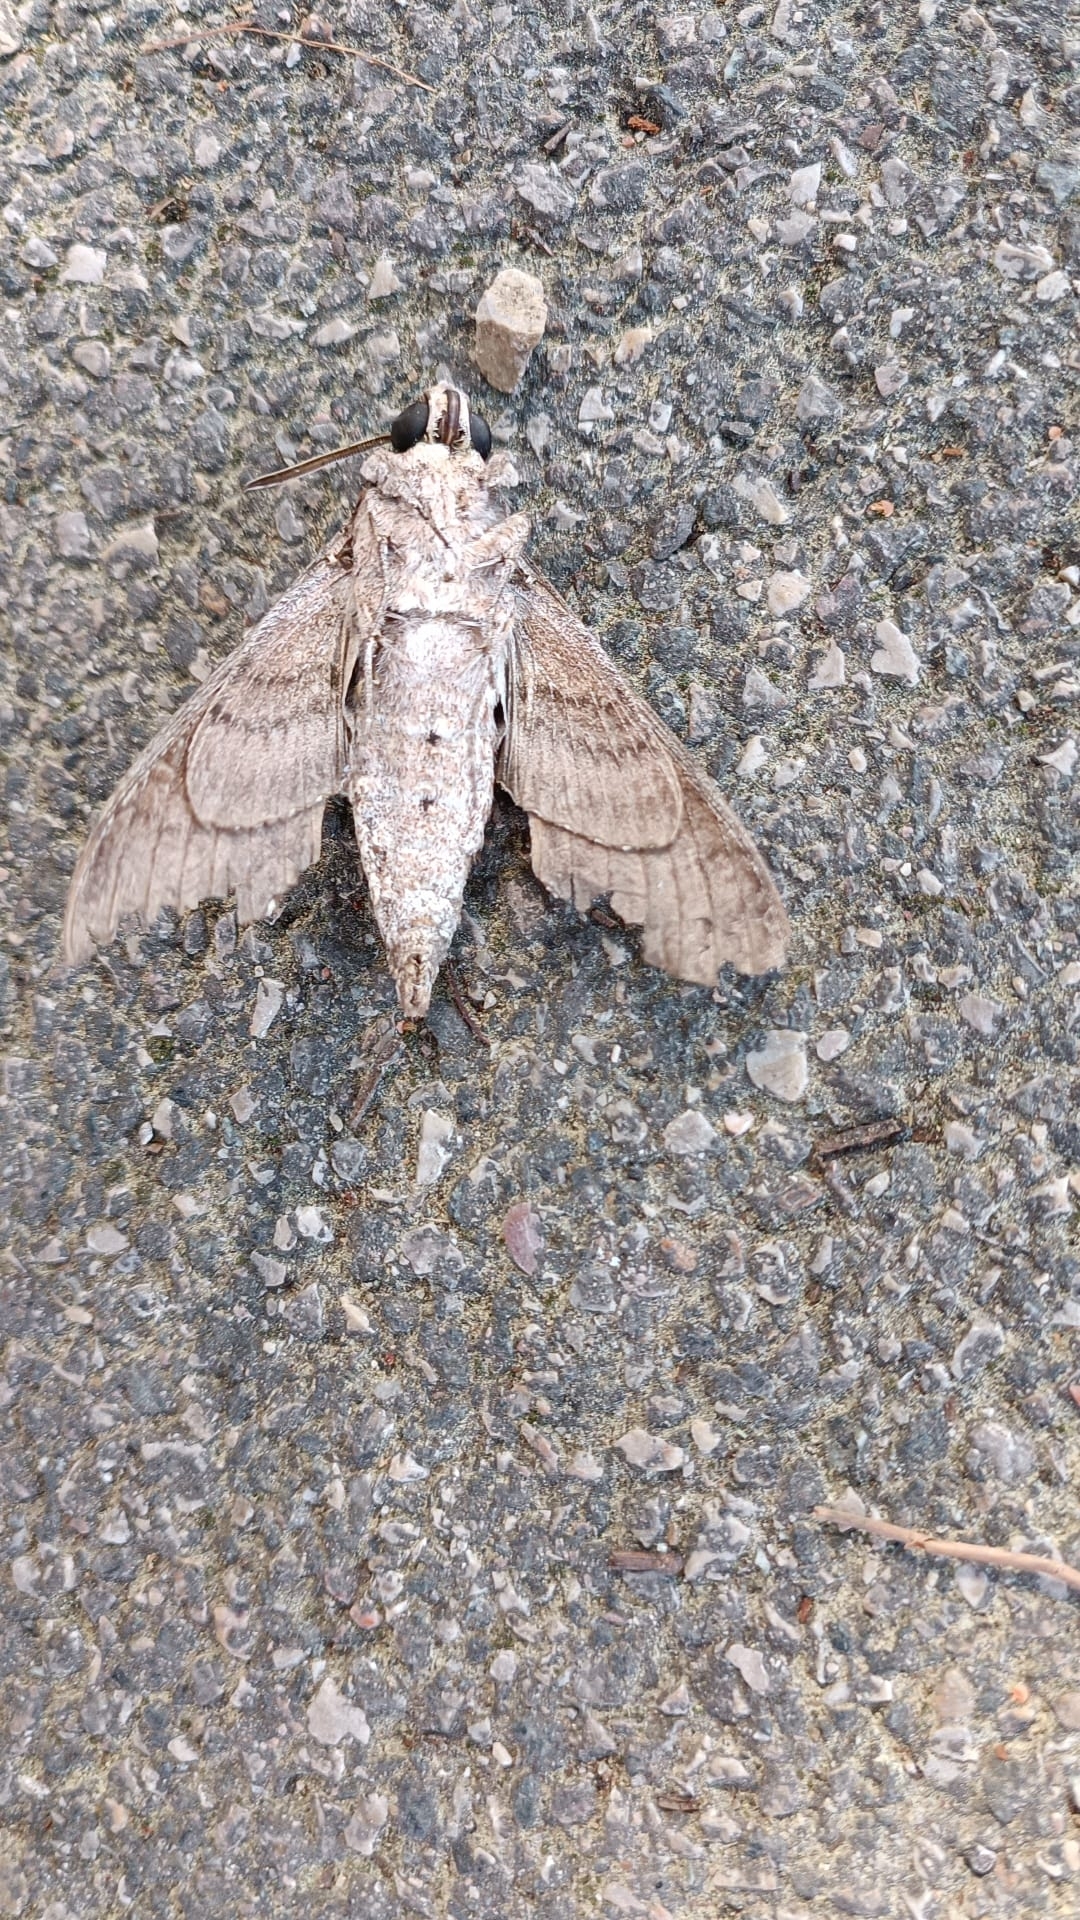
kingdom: Animalia
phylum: Arthropoda
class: Insecta
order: Lepidoptera
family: Sphingidae
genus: Agrius
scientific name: Agrius convolvuli
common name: Convolvulus hawkmoth
